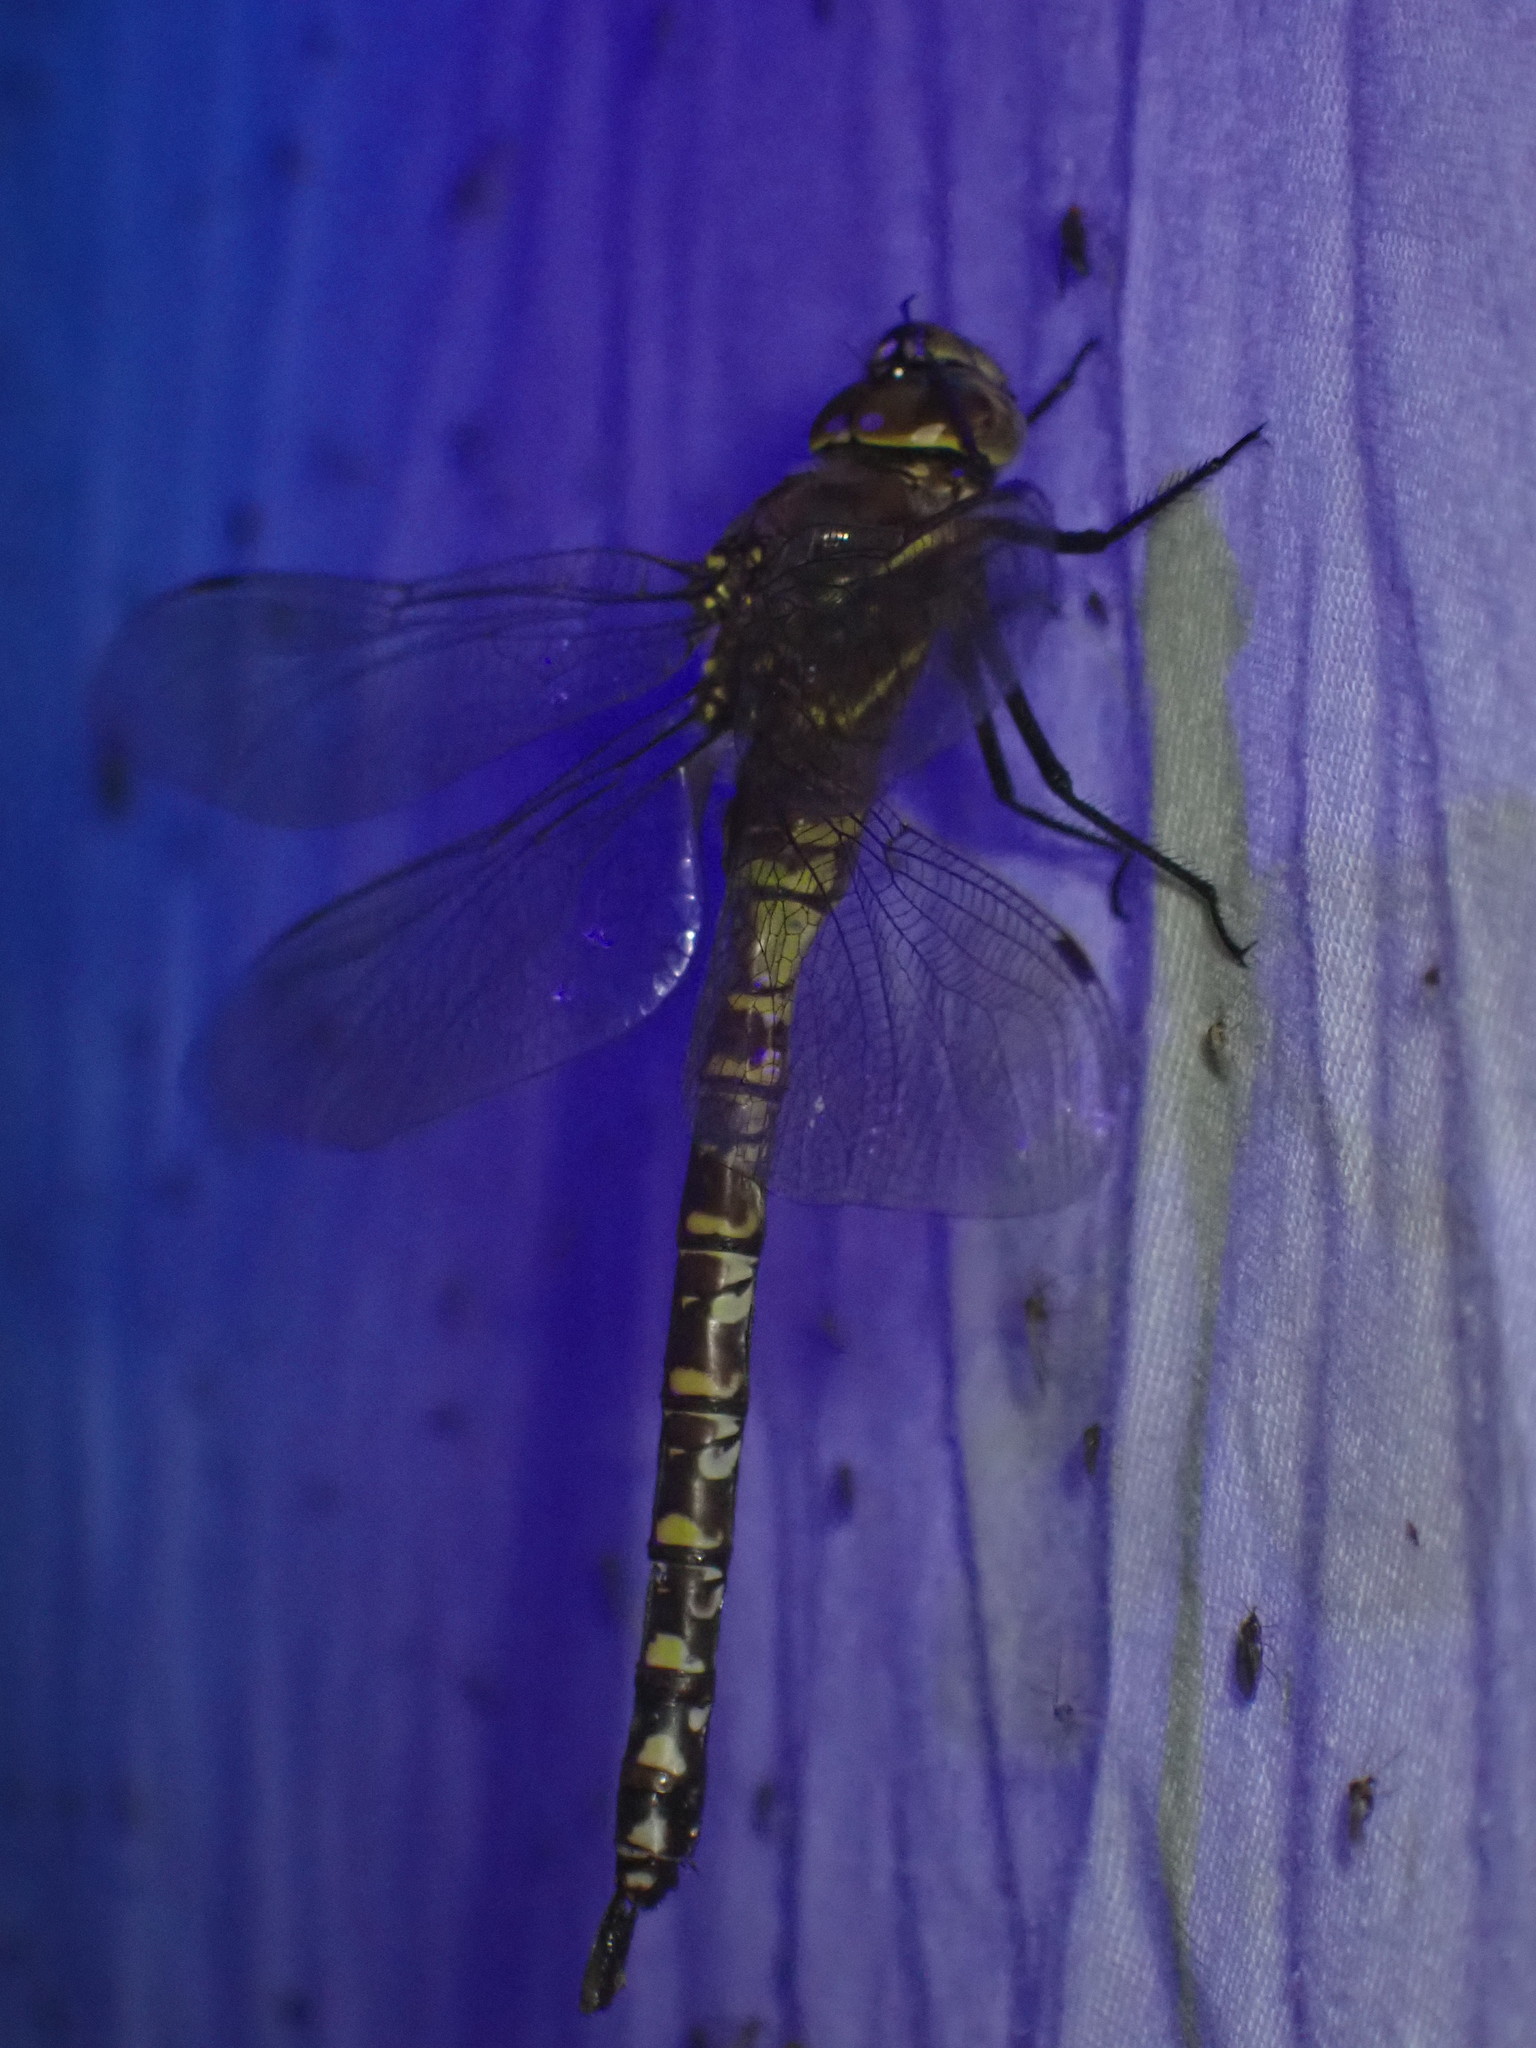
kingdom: Animalia
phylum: Arthropoda
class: Insecta
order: Odonata
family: Aeshnidae
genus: Aeshna
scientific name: Aeshna interrupta
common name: Variable darner
